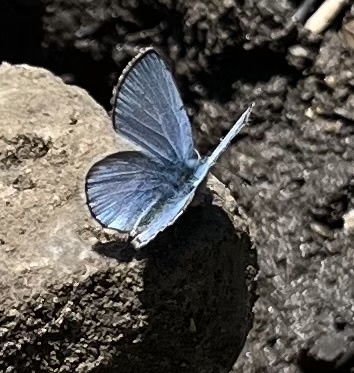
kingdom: Animalia
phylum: Arthropoda
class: Insecta
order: Lepidoptera
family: Lycaenidae
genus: Glaucopsyche
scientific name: Glaucopsyche lygdamus
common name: Silvery blue
